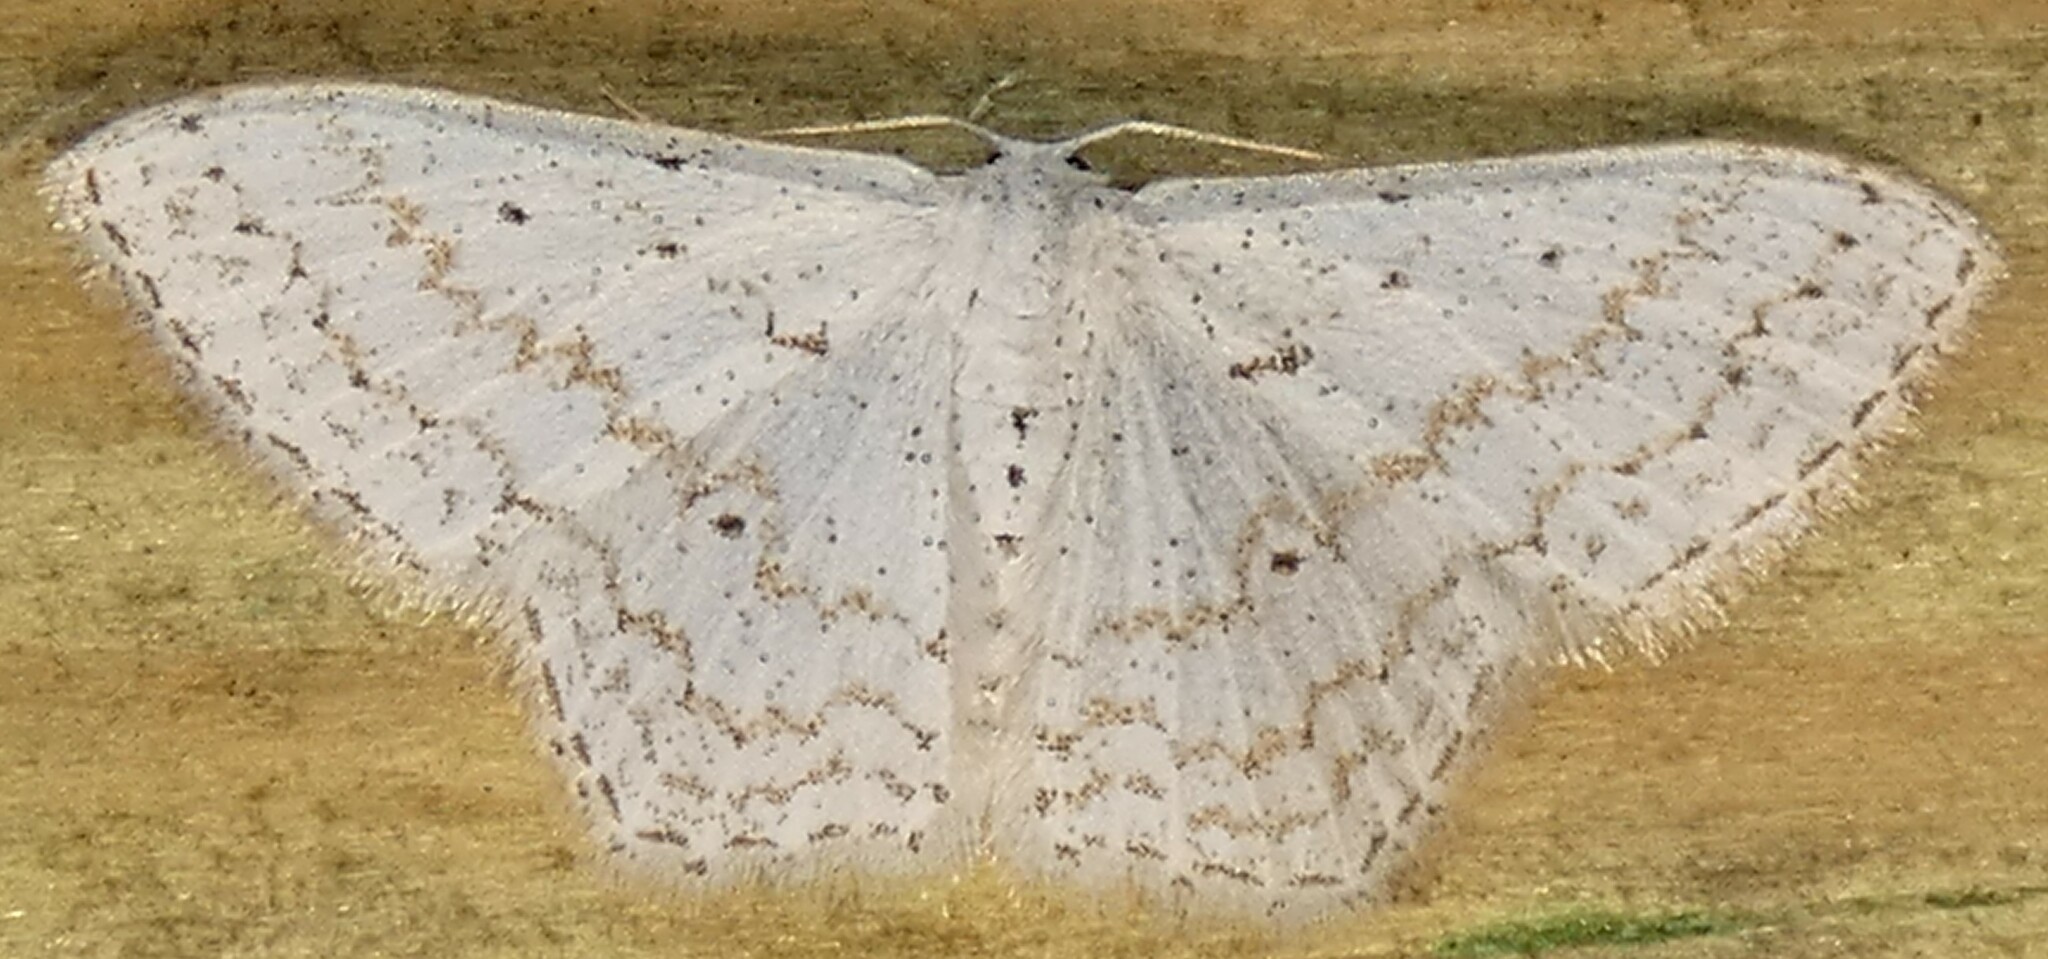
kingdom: Animalia
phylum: Arthropoda
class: Insecta
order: Lepidoptera
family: Geometridae
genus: Idaea
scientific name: Idaea tacturata
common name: Dot-lined wave
